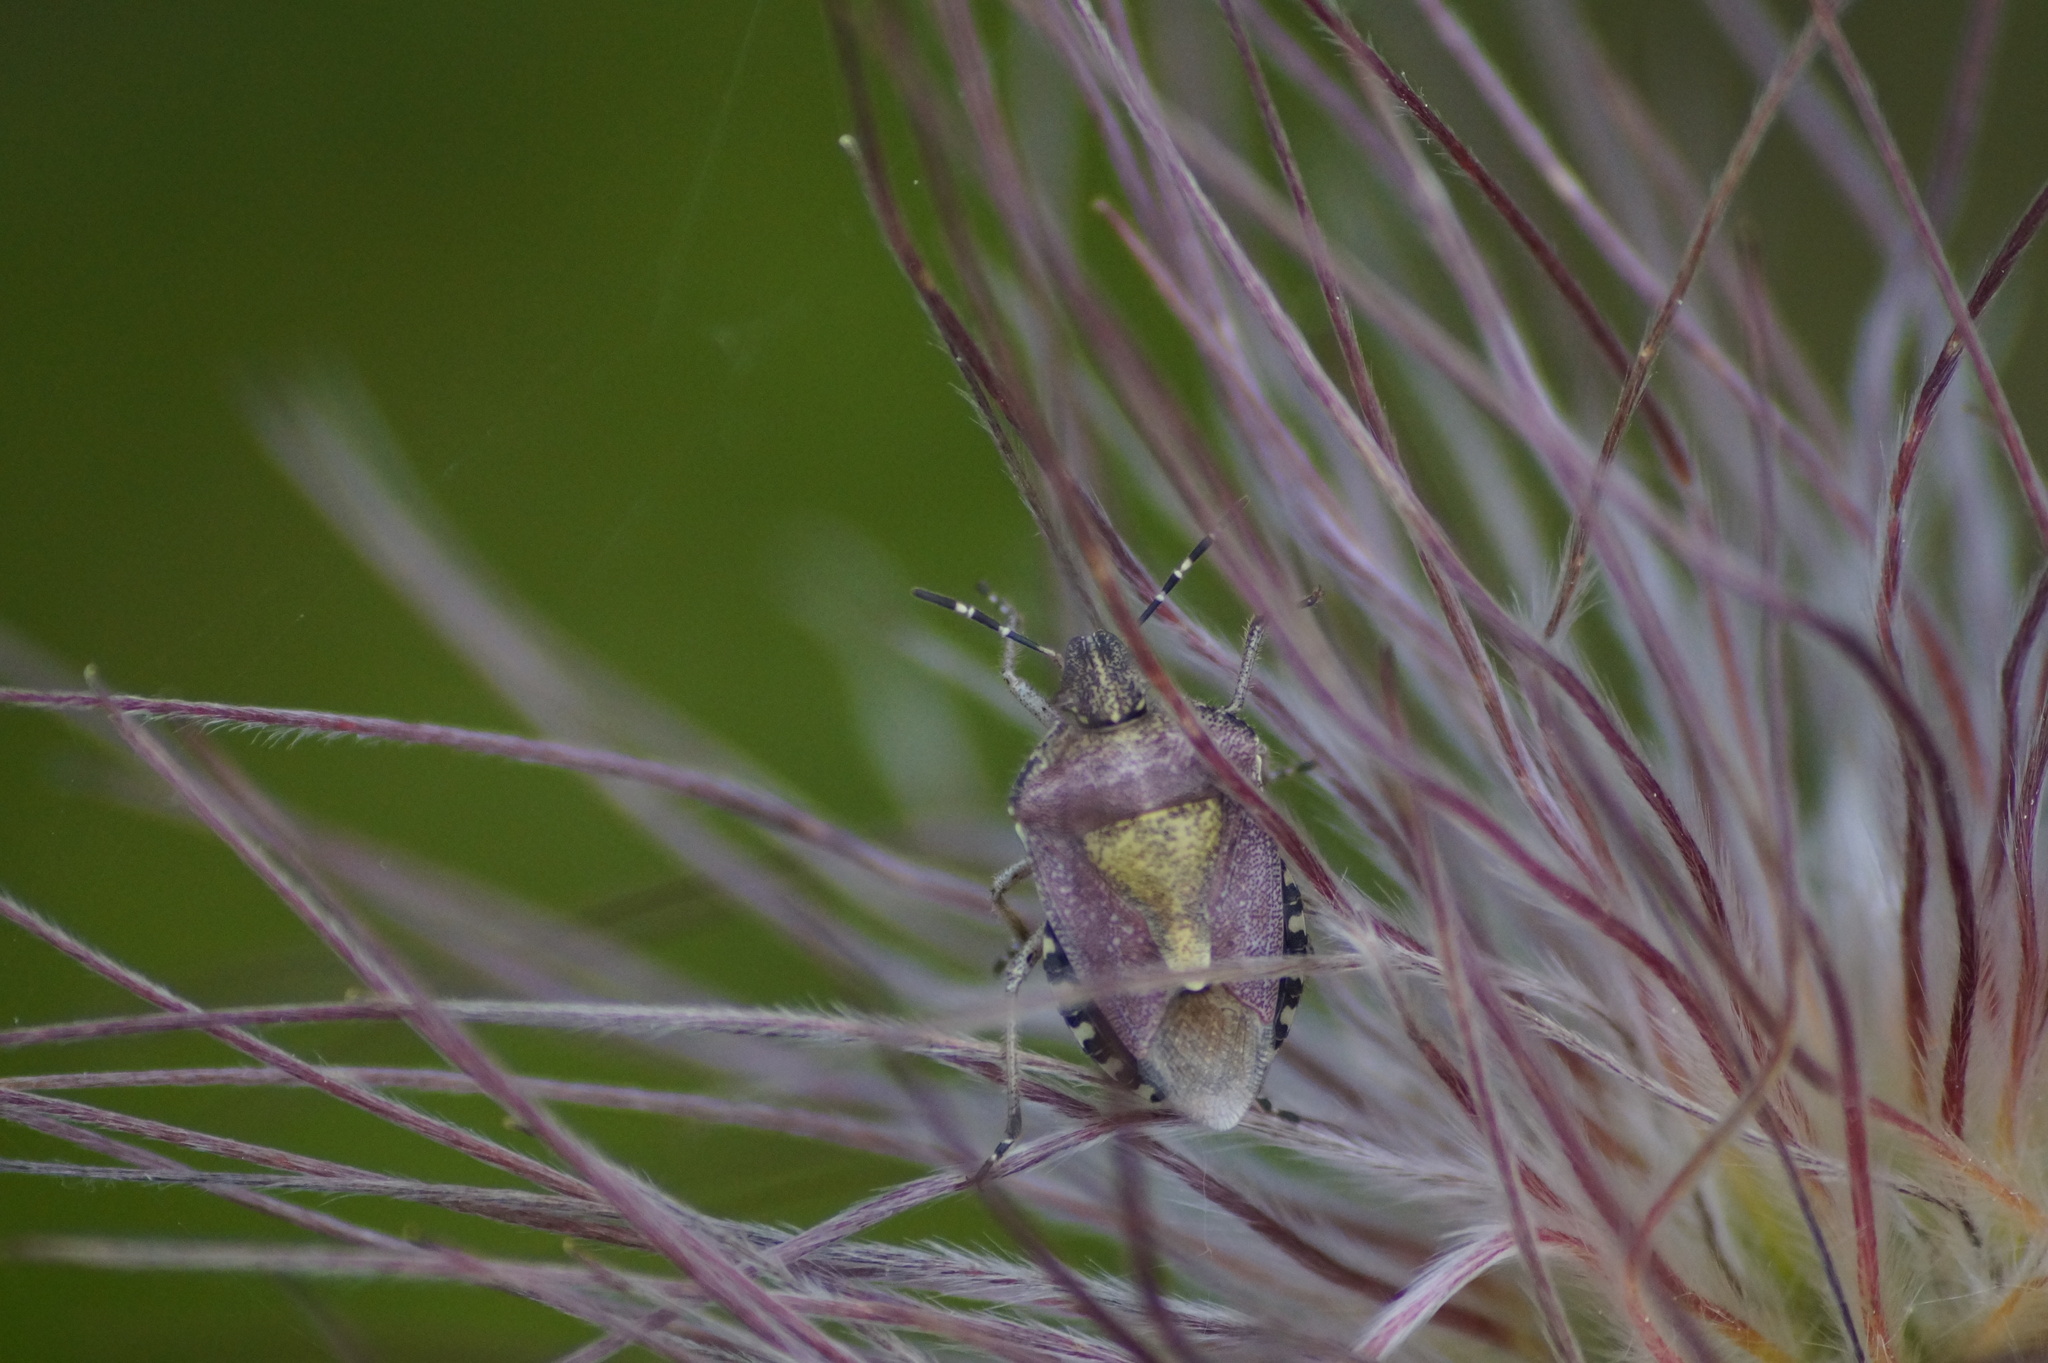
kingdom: Animalia
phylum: Arthropoda
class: Insecta
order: Hemiptera
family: Pentatomidae
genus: Dolycoris
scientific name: Dolycoris baccarum
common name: Sloe bug
